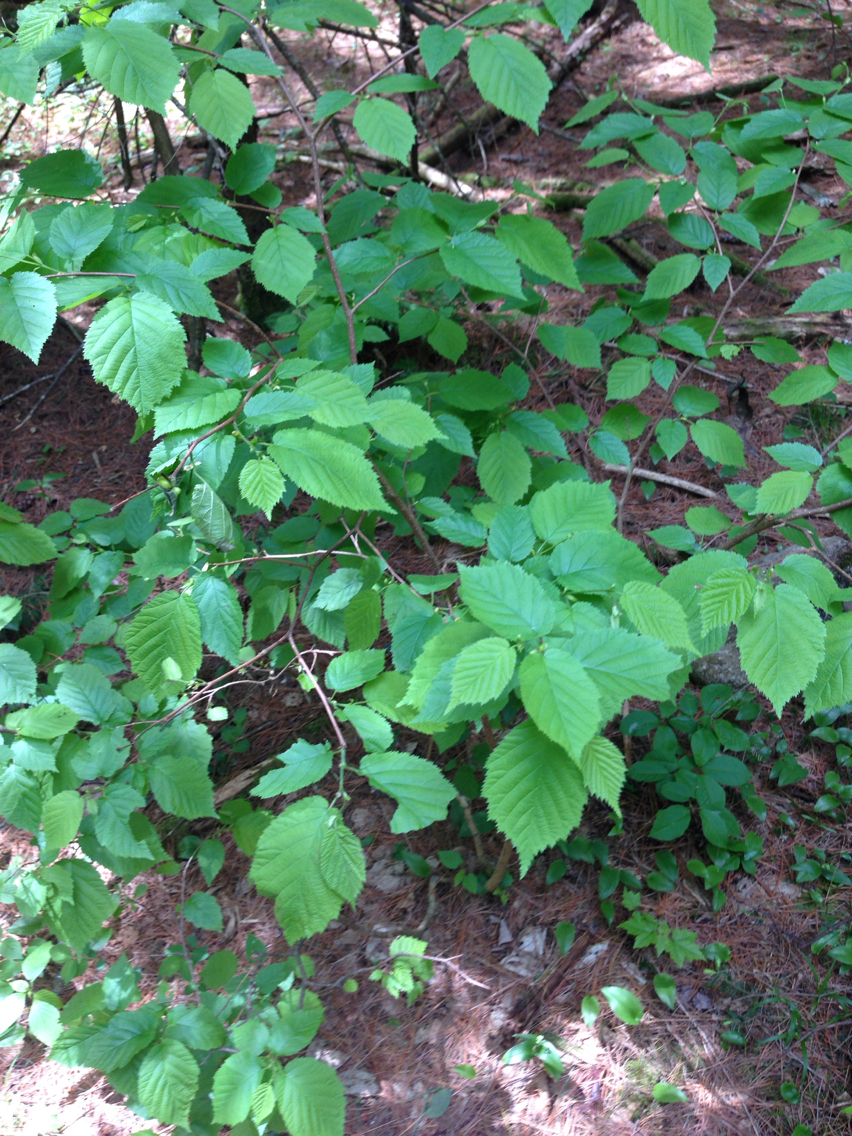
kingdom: Plantae
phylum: Tracheophyta
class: Magnoliopsida
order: Fagales
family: Betulaceae
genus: Corylus
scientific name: Corylus cornuta
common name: Beaked hazel
